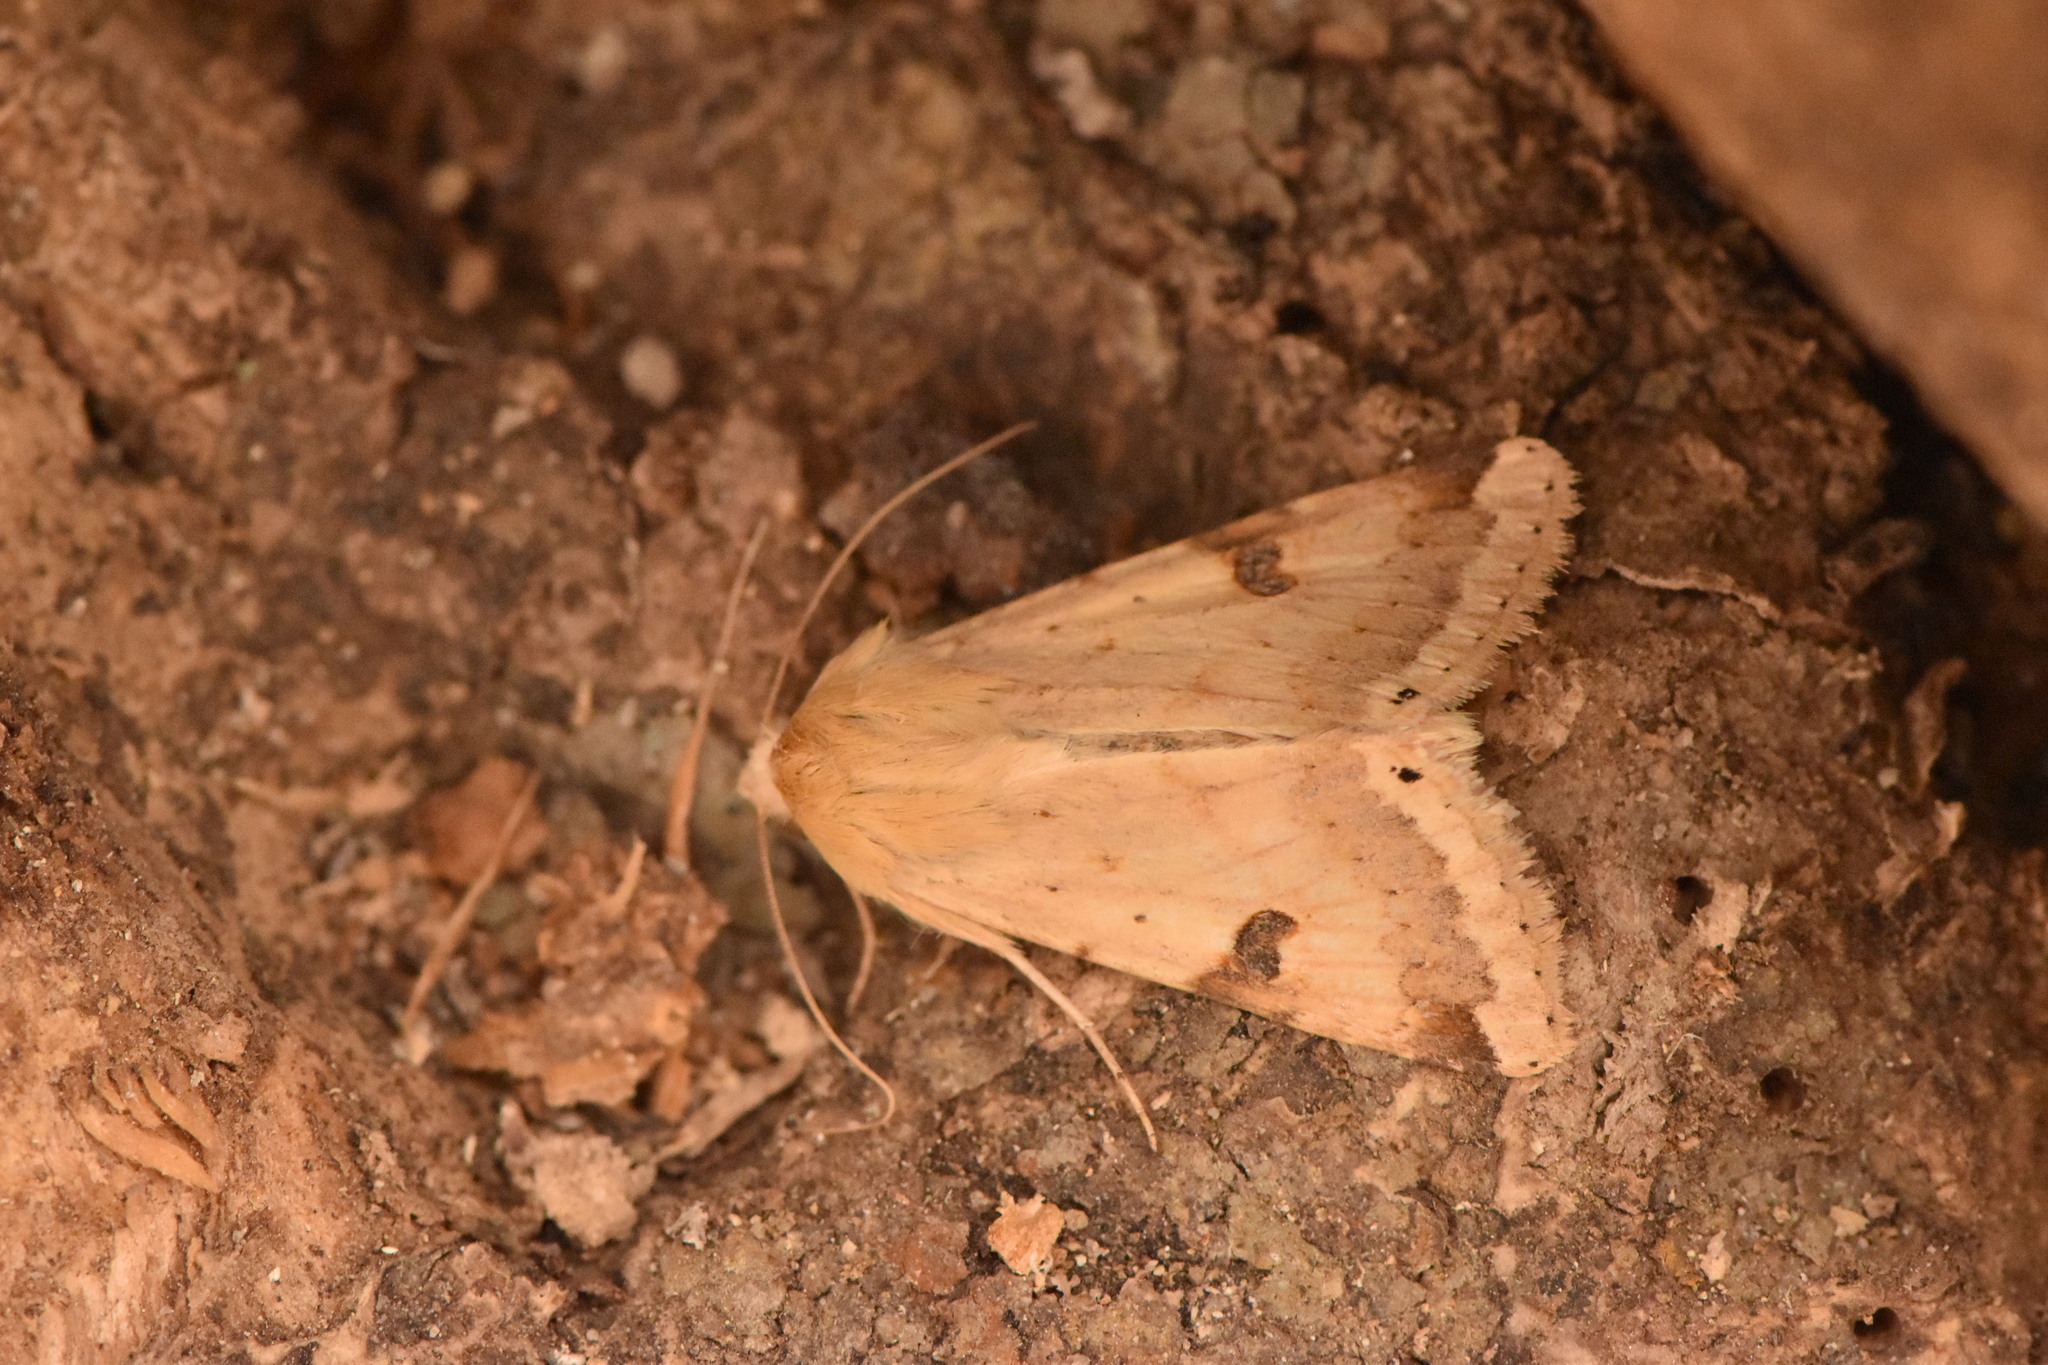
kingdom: Animalia
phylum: Arthropoda
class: Insecta
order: Lepidoptera
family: Noctuidae
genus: Heliothis
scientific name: Heliothis peltigera
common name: Bordered straw
